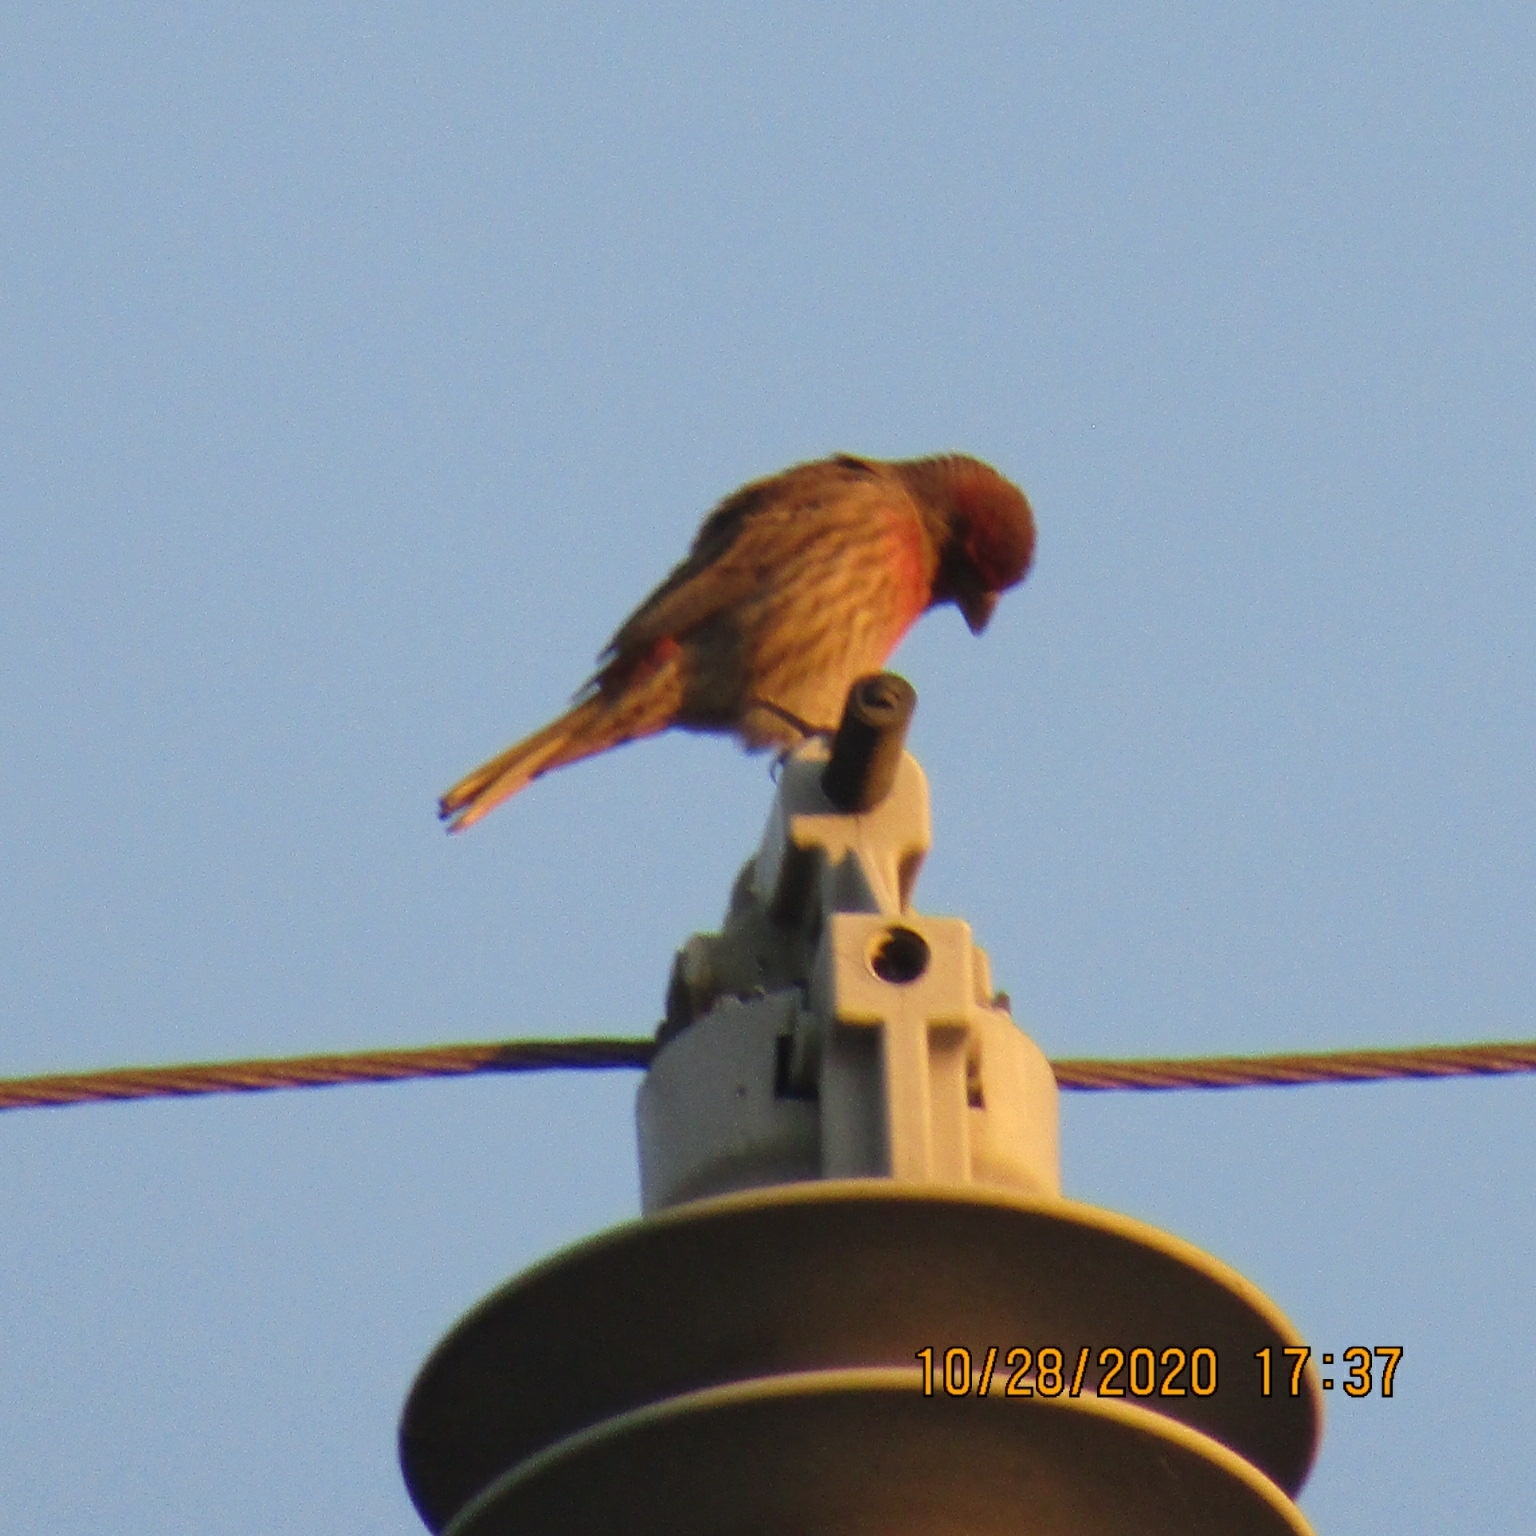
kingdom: Animalia
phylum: Chordata
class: Aves
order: Passeriformes
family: Fringillidae
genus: Haemorhous
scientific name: Haemorhous mexicanus
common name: House finch
